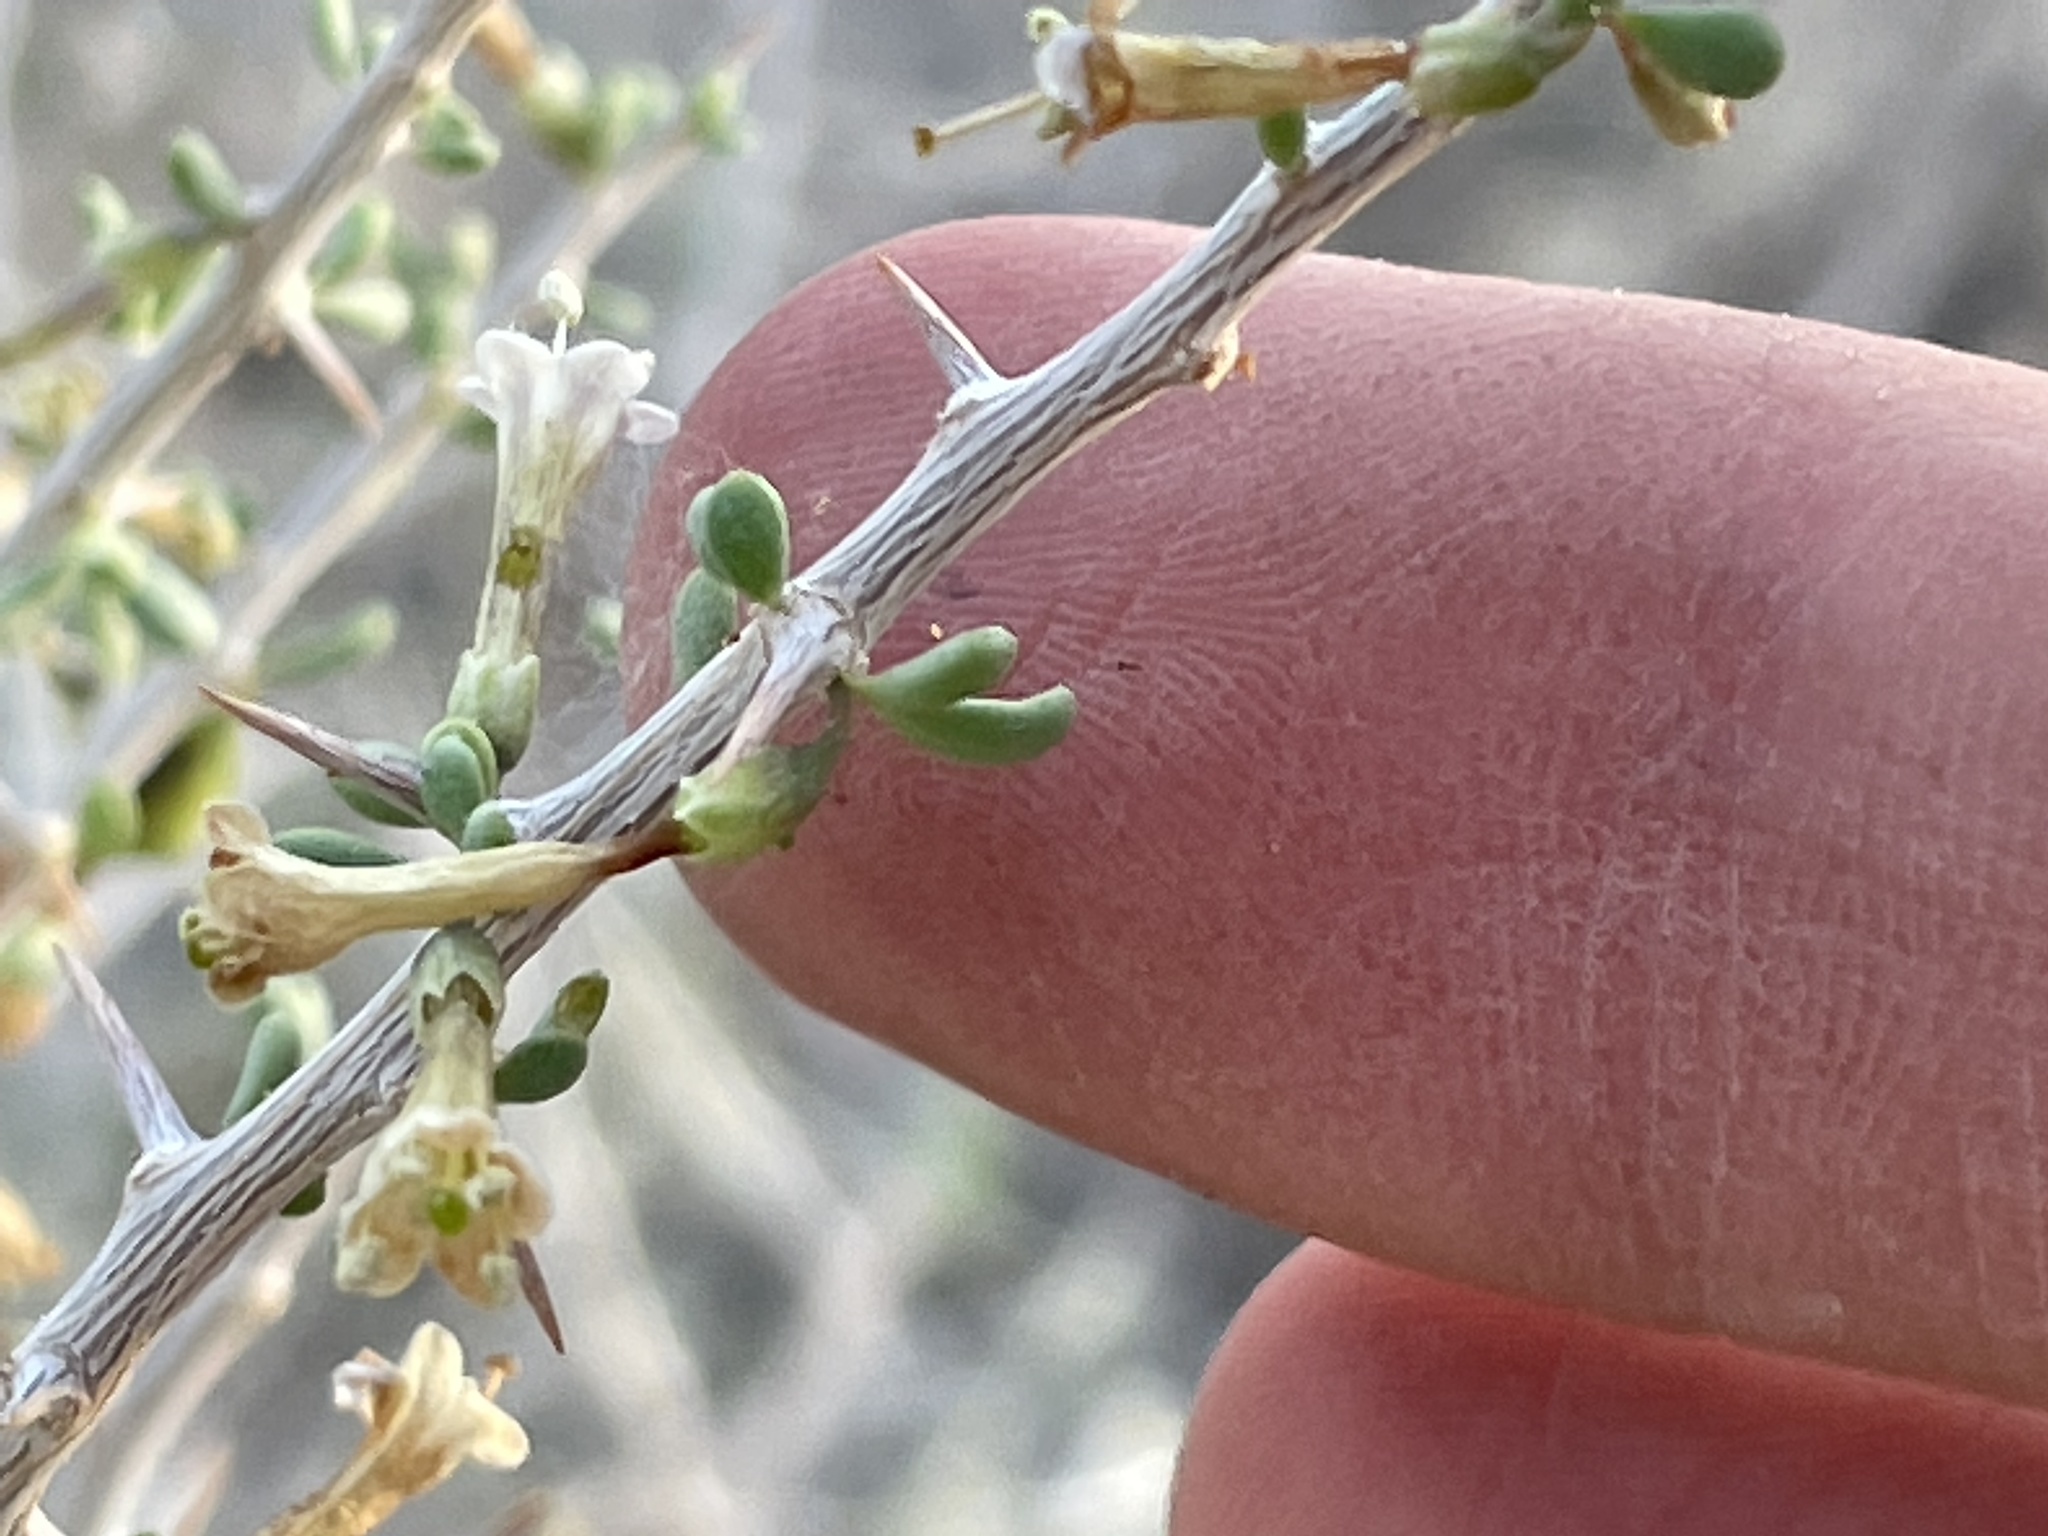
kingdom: Plantae
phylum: Tracheophyta
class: Magnoliopsida
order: Solanales
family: Solanaceae
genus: Lycium
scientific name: Lycium andersonii
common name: Water-jacket
